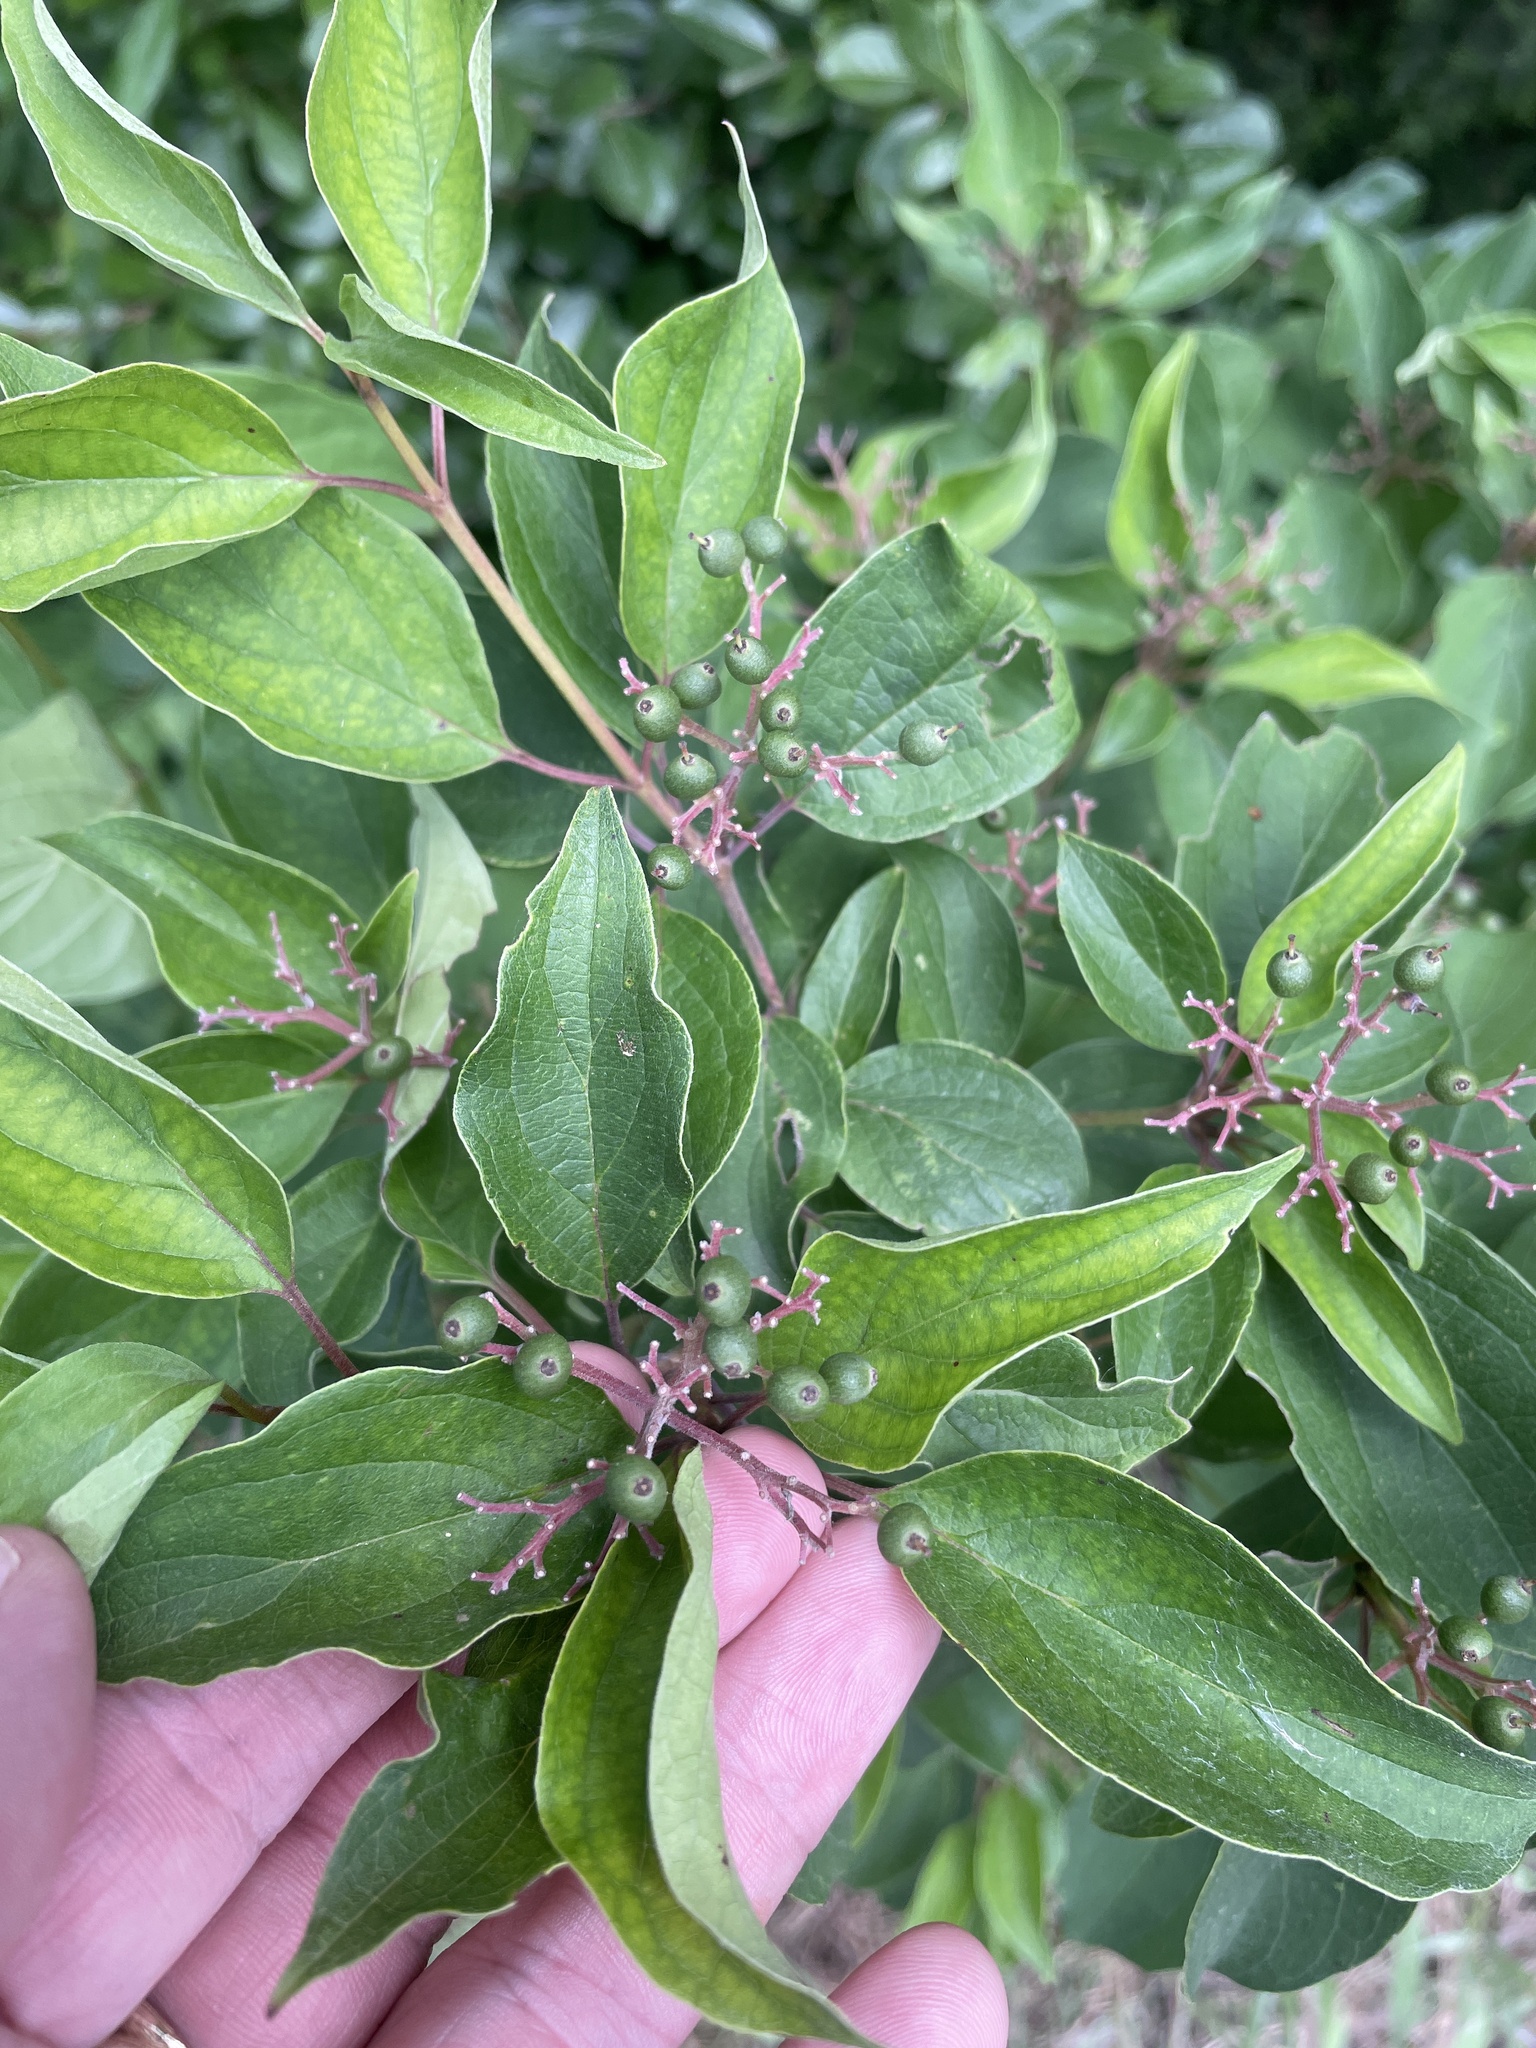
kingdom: Plantae
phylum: Tracheophyta
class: Magnoliopsida
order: Cornales
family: Cornaceae
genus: Cornus
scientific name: Cornus drummondii
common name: Rough-leaf dogwood
